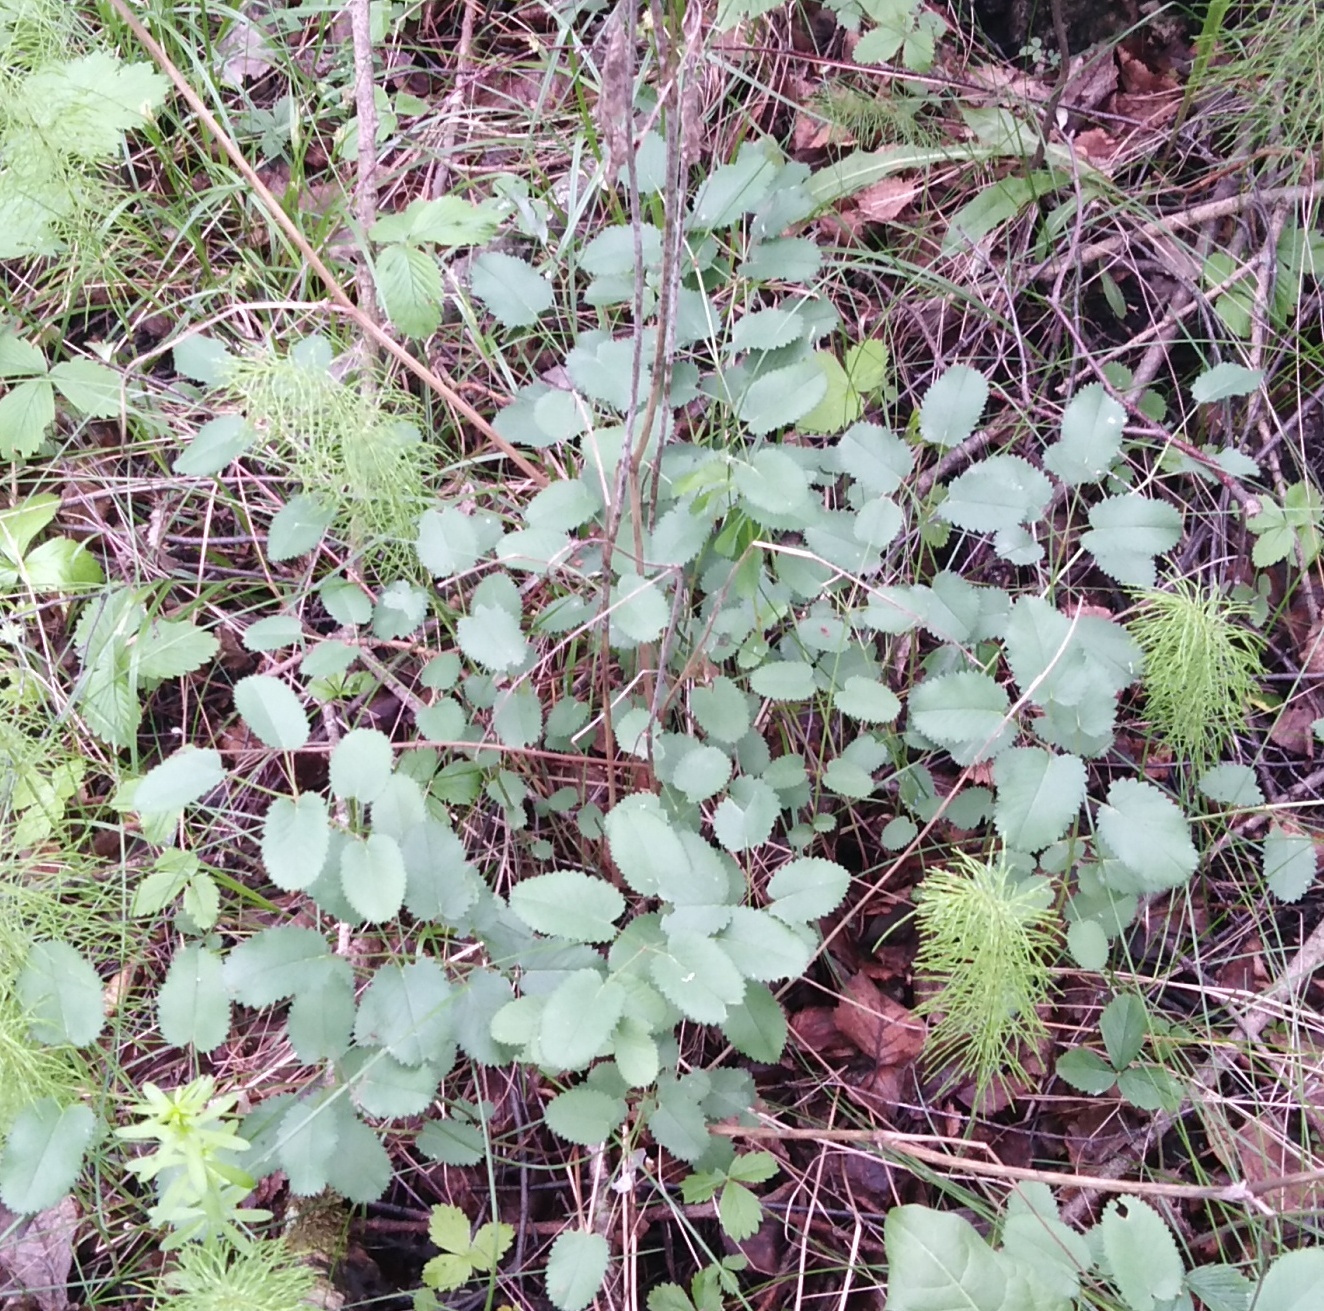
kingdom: Plantae
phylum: Tracheophyta
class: Magnoliopsida
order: Rosales
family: Rosaceae
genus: Sanguisorba
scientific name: Sanguisorba officinalis
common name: Great burnet
